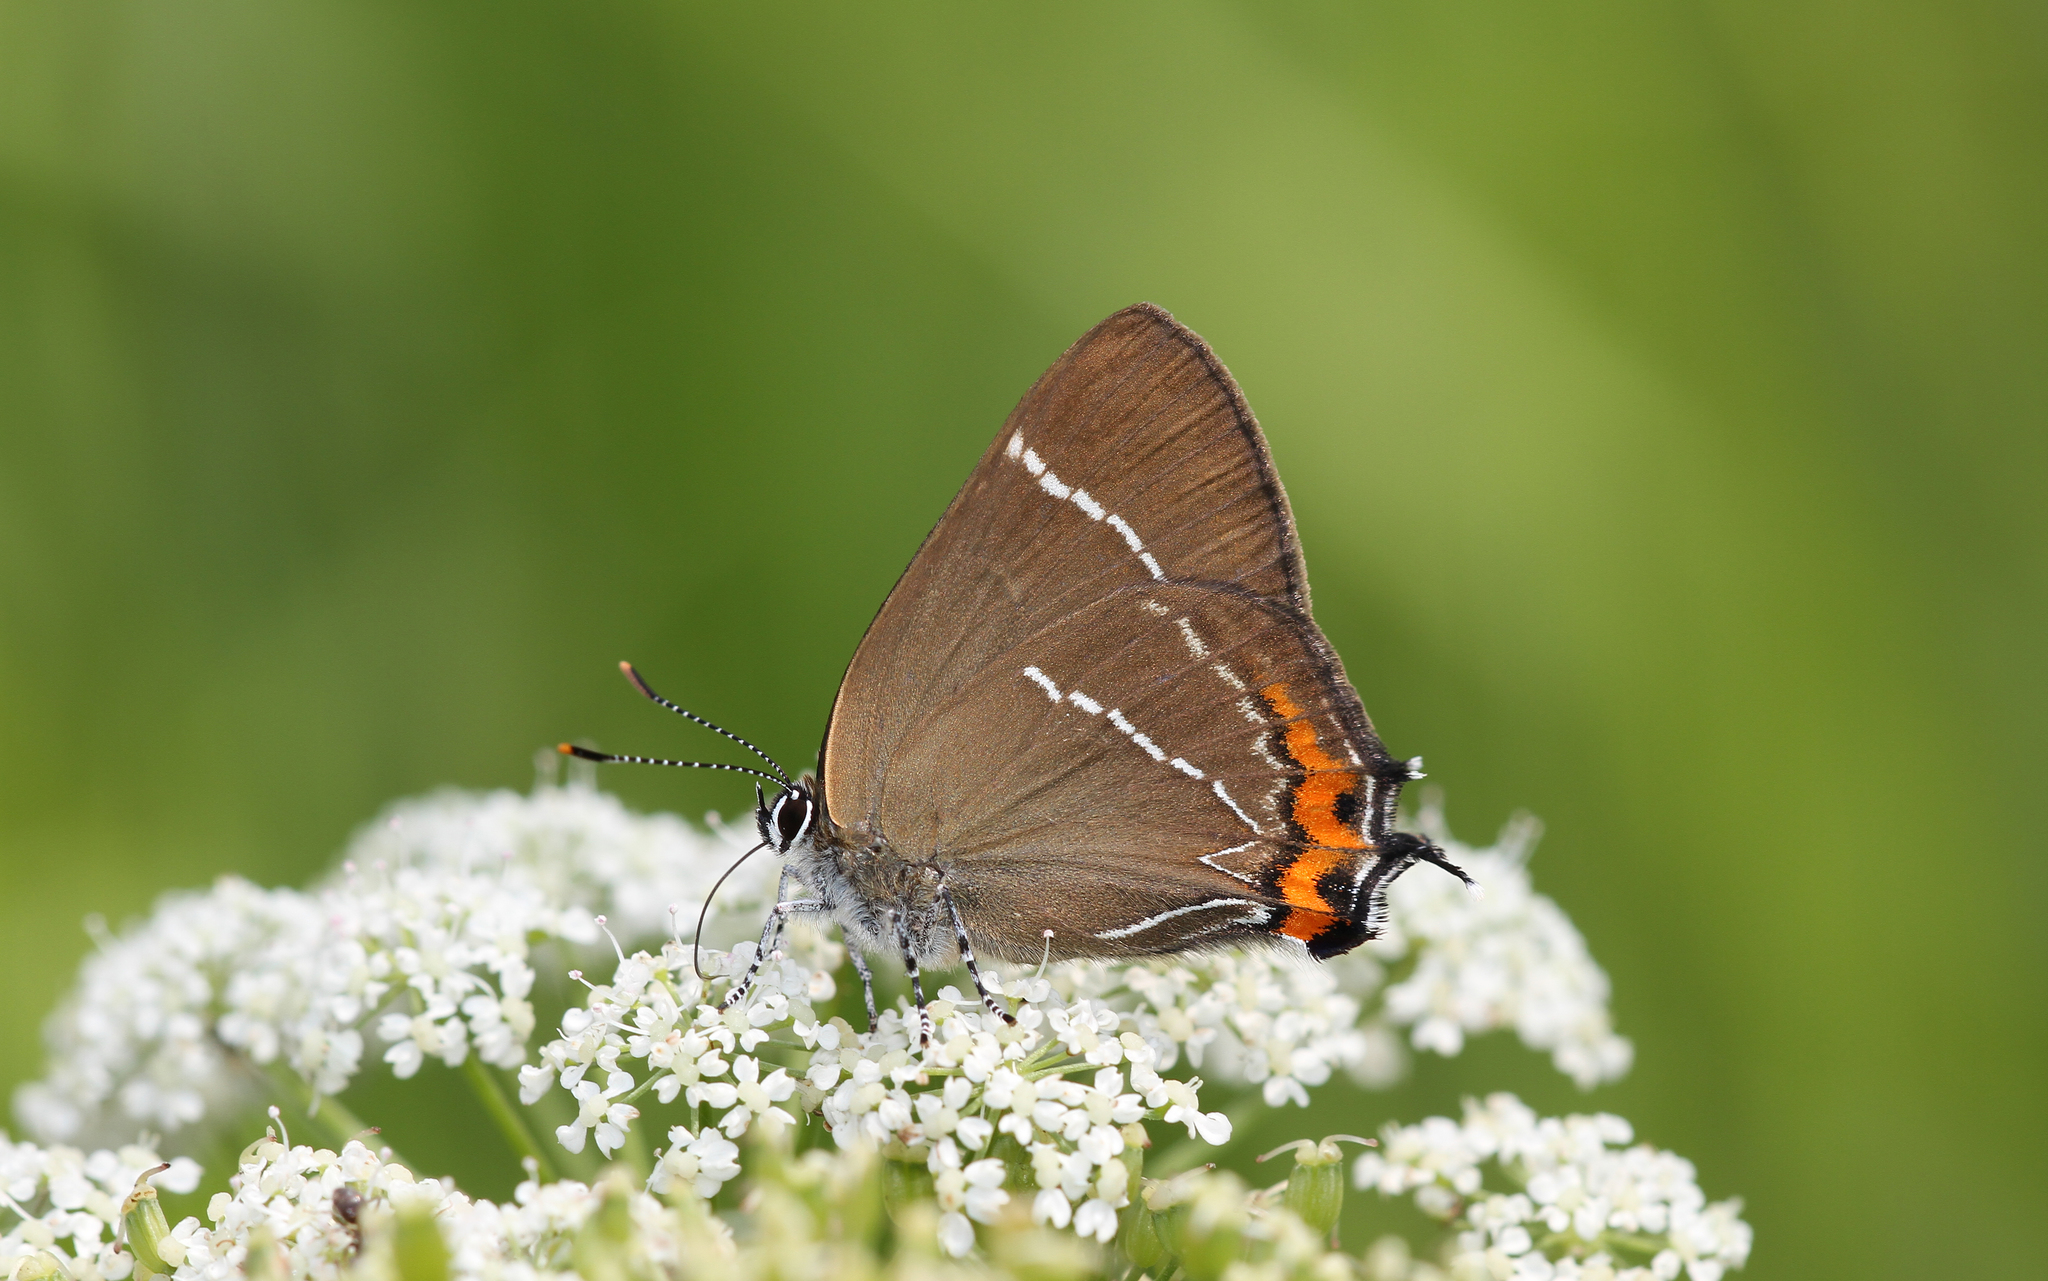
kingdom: Animalia
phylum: Arthropoda
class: Insecta
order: Lepidoptera
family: Lycaenidae
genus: Satyrium
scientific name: Satyrium w-album
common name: White-letter hairstreak
